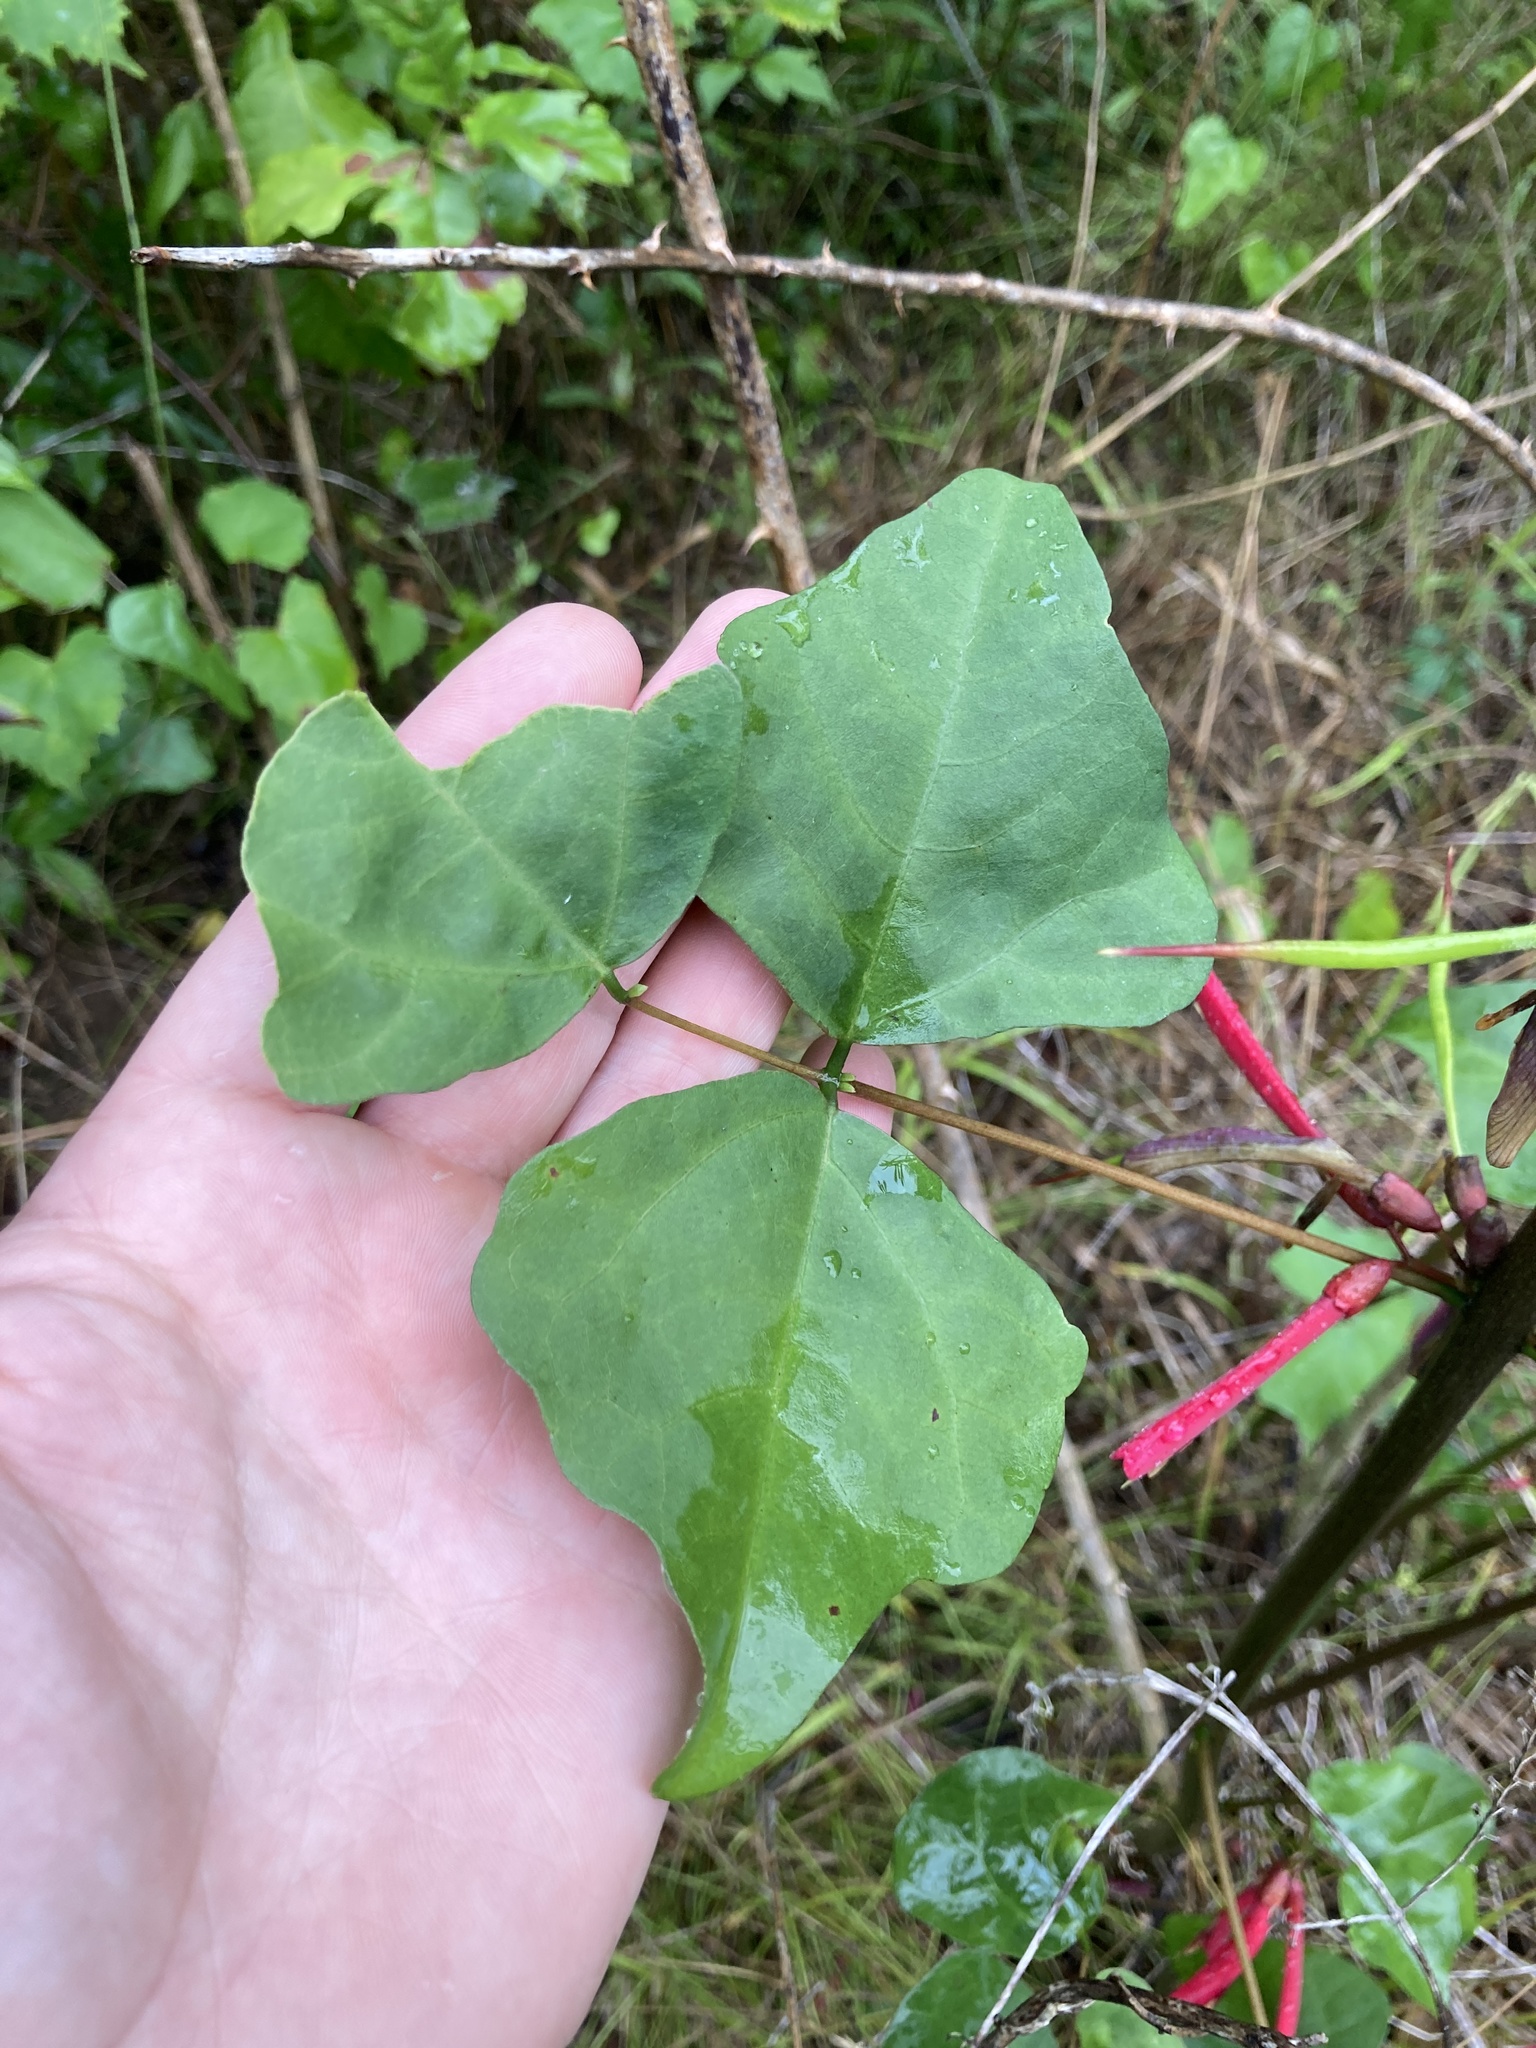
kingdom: Plantae
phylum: Tracheophyta
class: Magnoliopsida
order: Fabales
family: Fabaceae
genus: Erythrina
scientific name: Erythrina herbacea
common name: Coral-bean
